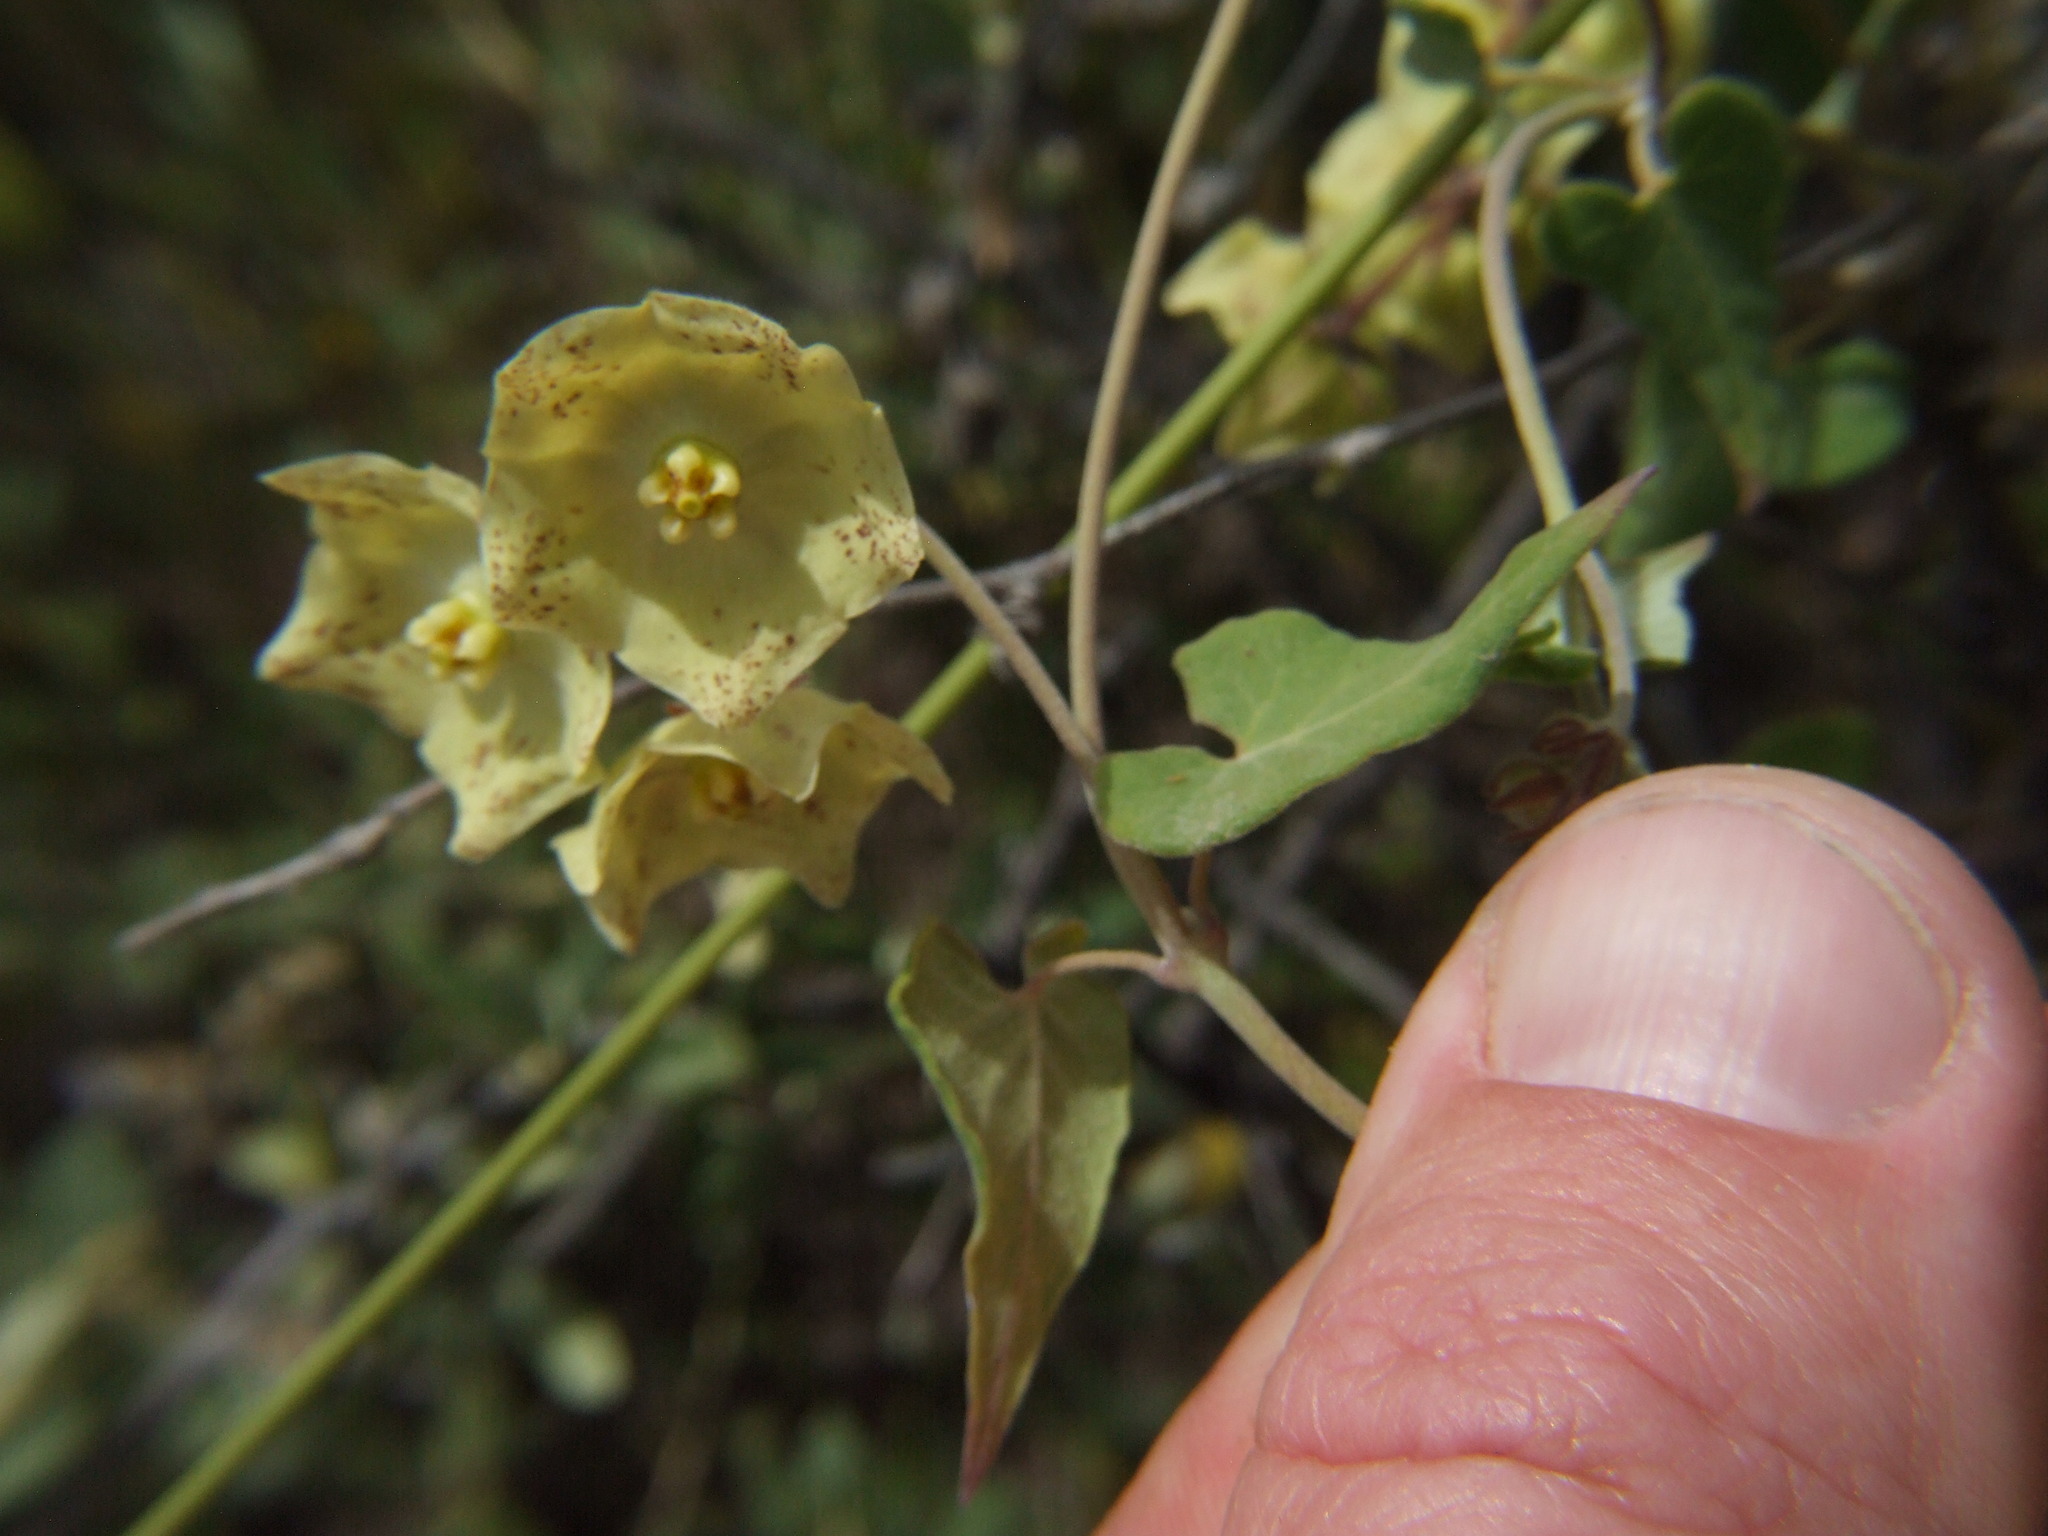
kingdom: Plantae
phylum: Tracheophyta
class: Magnoliopsida
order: Gentianales
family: Apocynaceae
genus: Philibertia
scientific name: Philibertia solanoides
